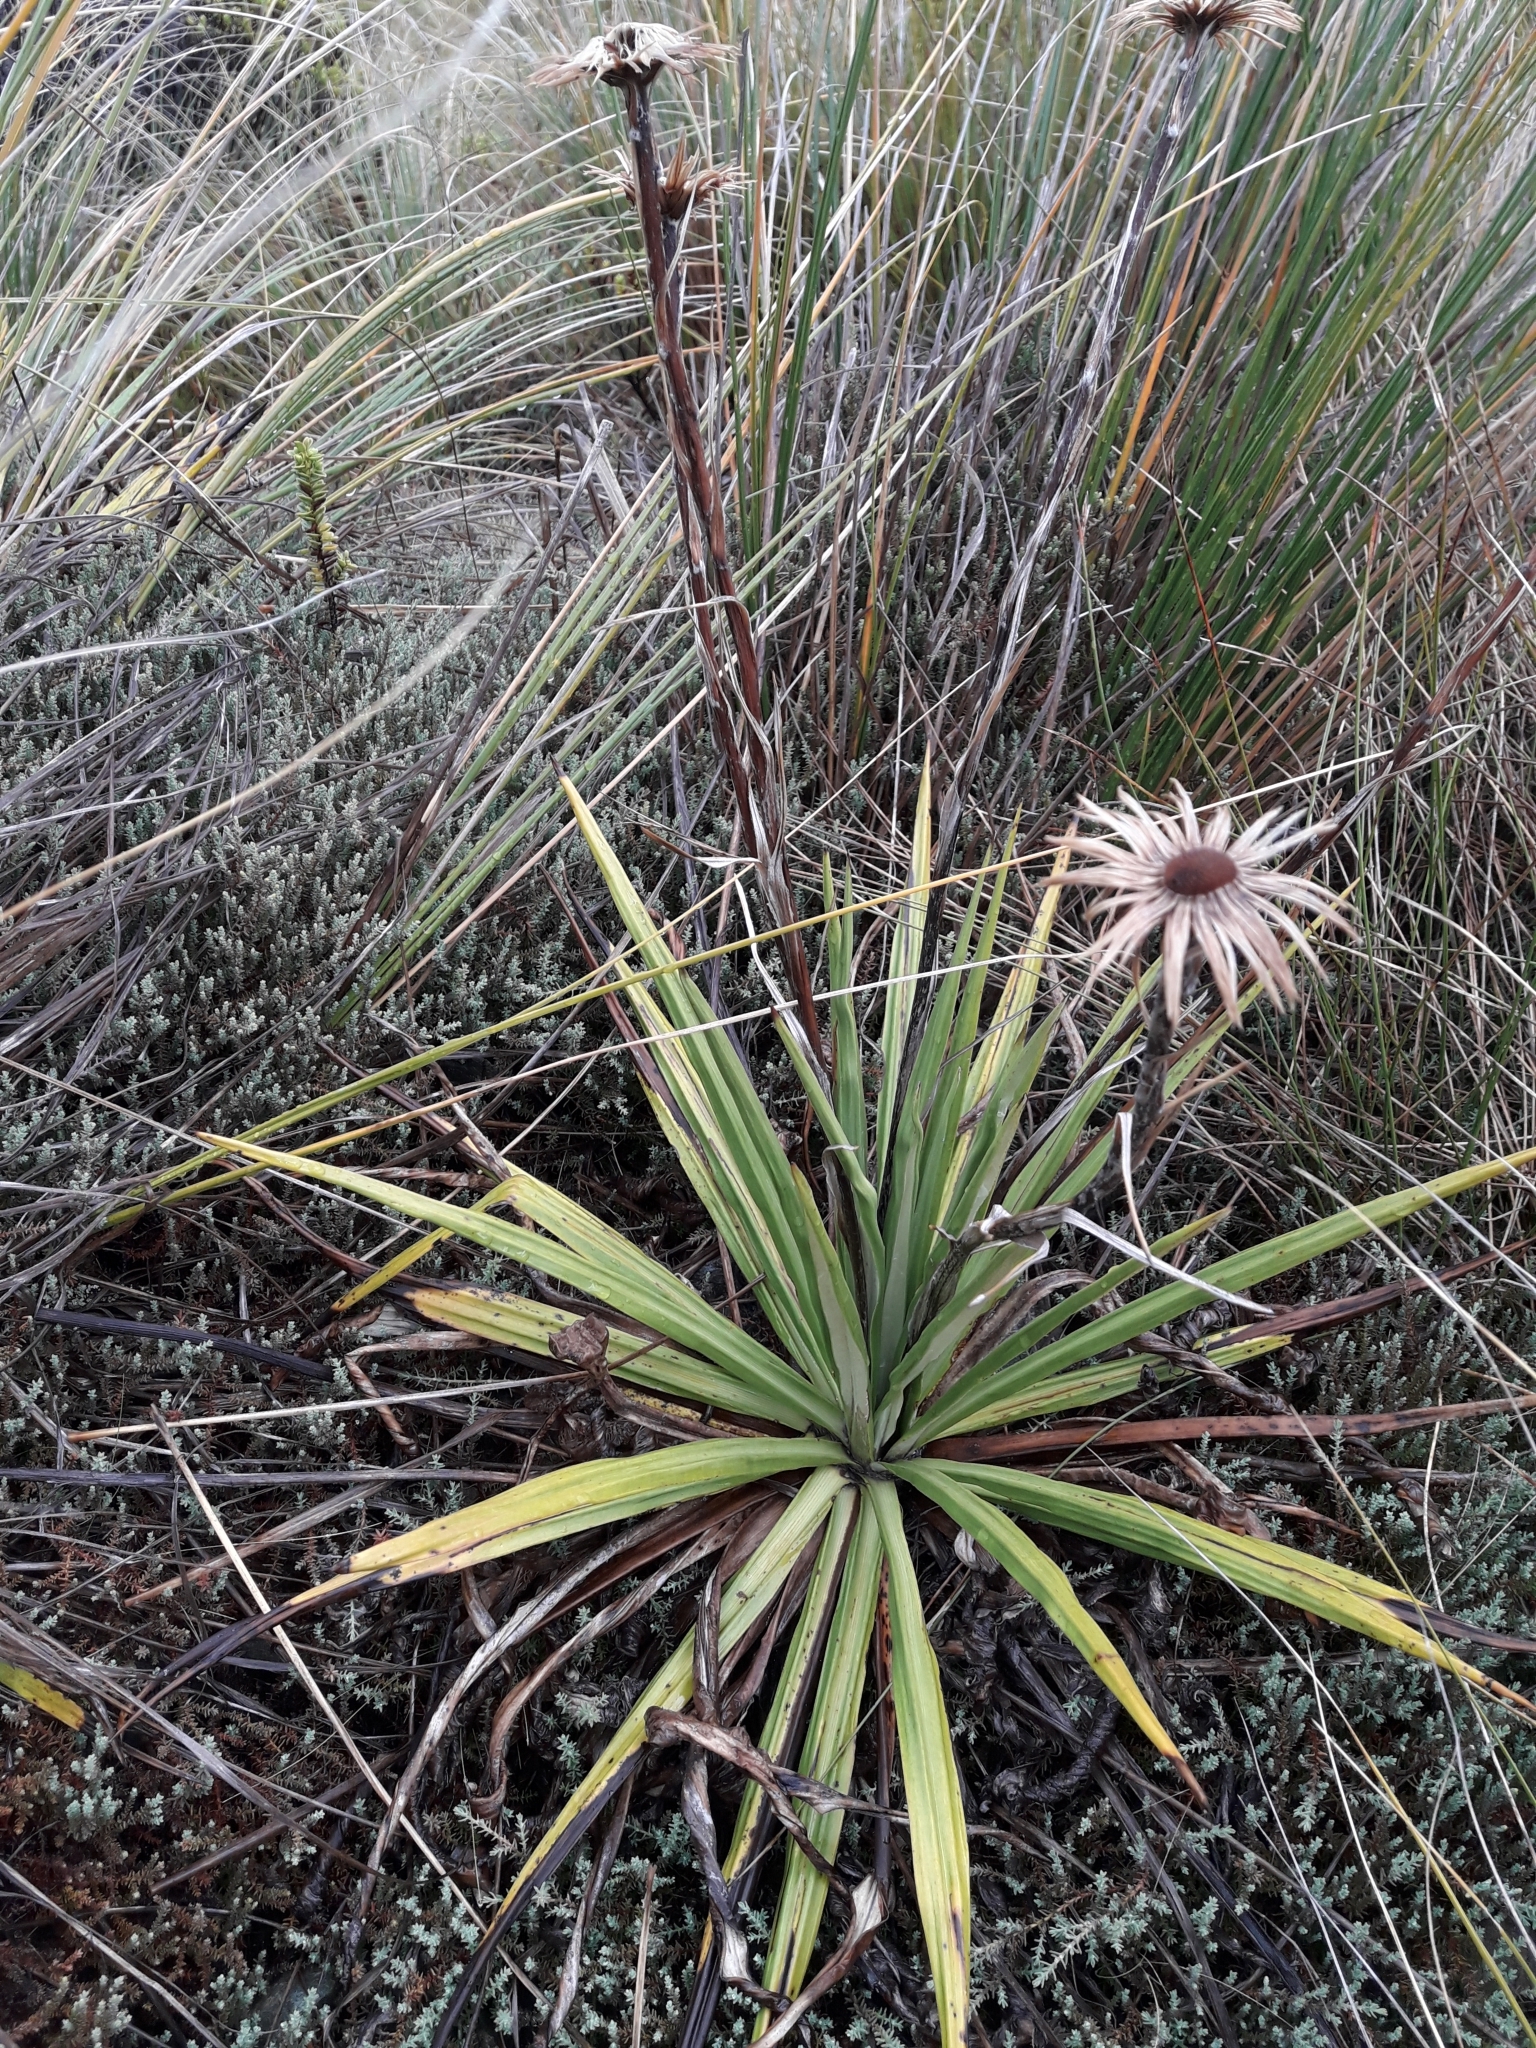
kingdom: Plantae
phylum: Tracheophyta
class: Magnoliopsida
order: Asterales
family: Asteraceae
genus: Celmisia
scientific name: Celmisia petriei
